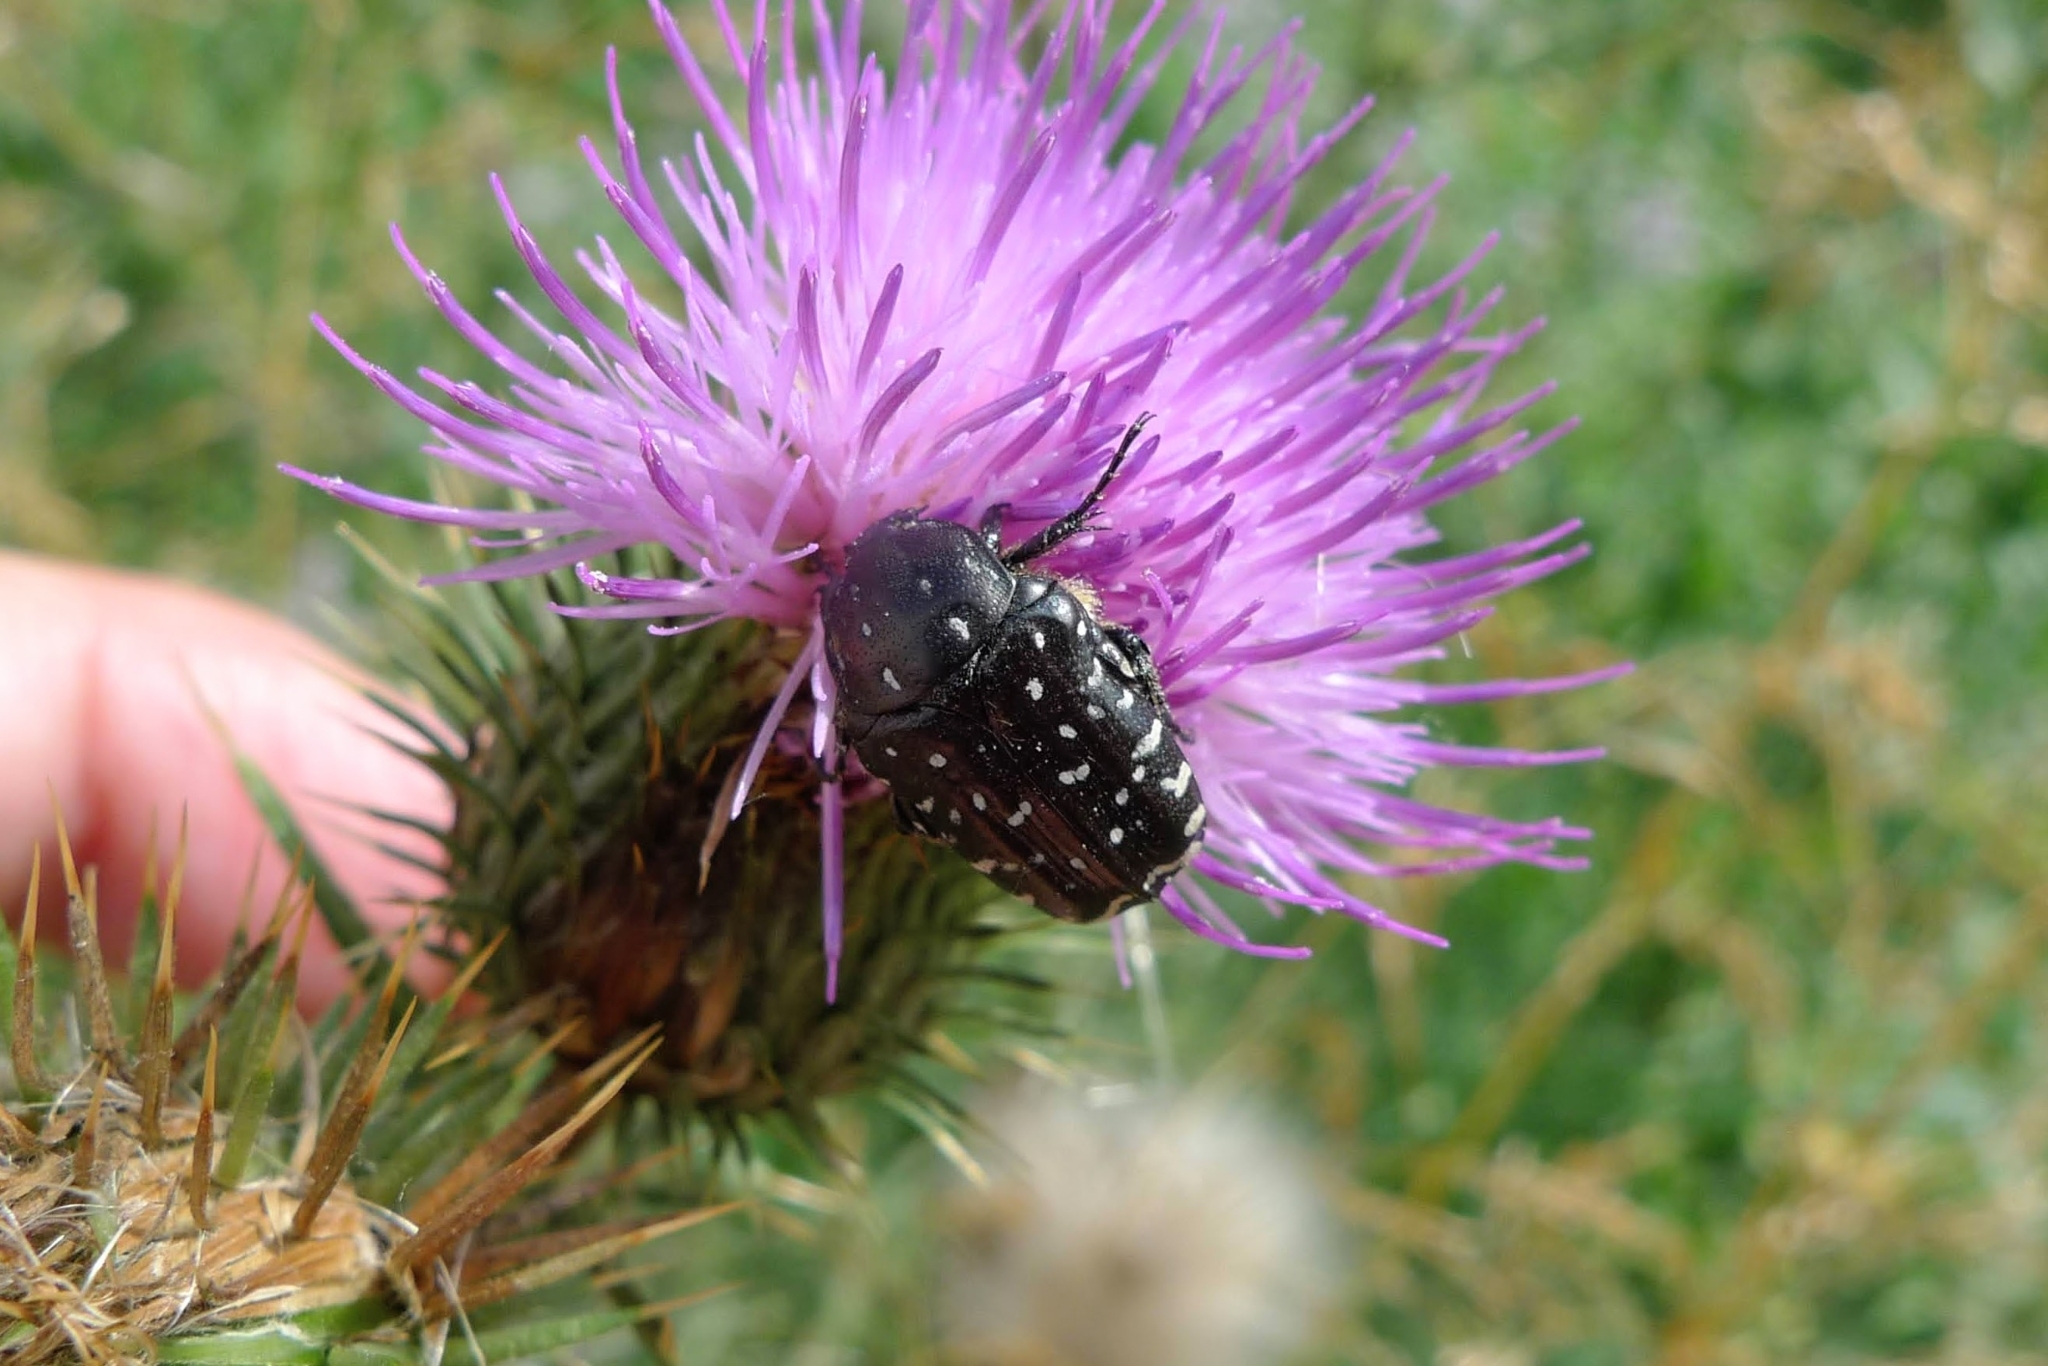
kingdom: Animalia
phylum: Arthropoda
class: Insecta
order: Coleoptera
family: Scarabaeidae
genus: Oxythyrea
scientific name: Oxythyrea funesta
